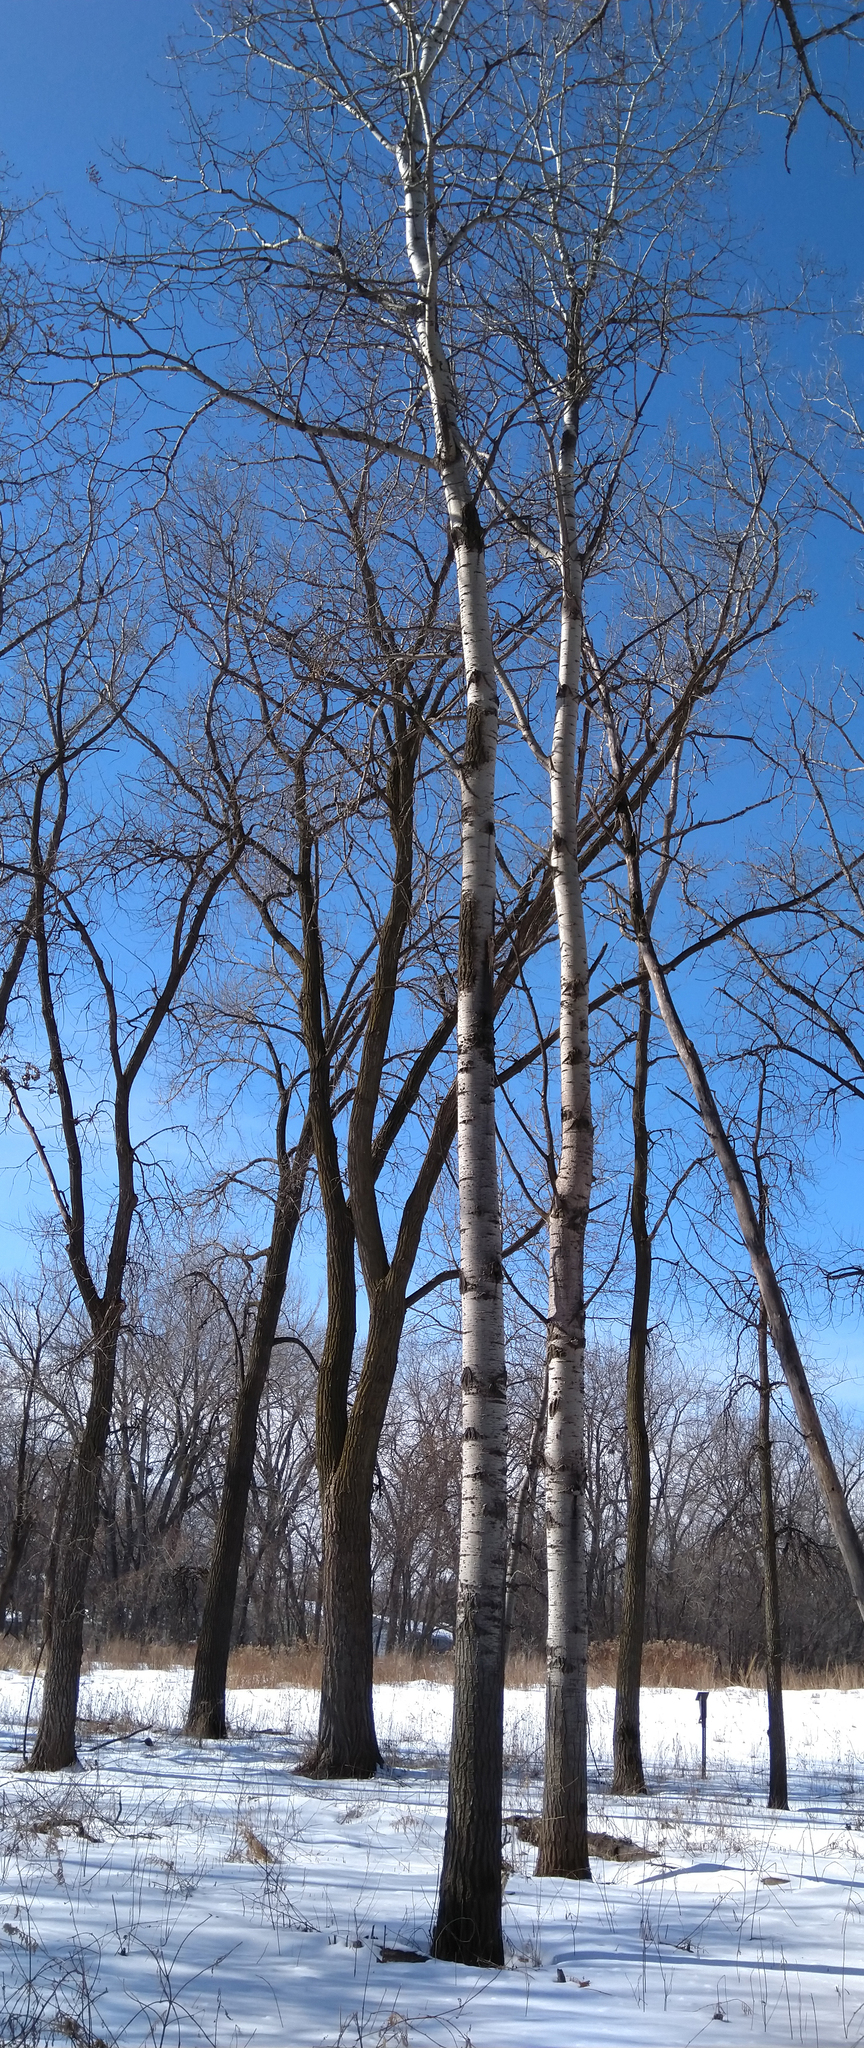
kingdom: Plantae
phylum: Tracheophyta
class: Magnoliopsida
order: Malpighiales
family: Salicaceae
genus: Populus
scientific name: Populus tremuloides
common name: Quaking aspen
